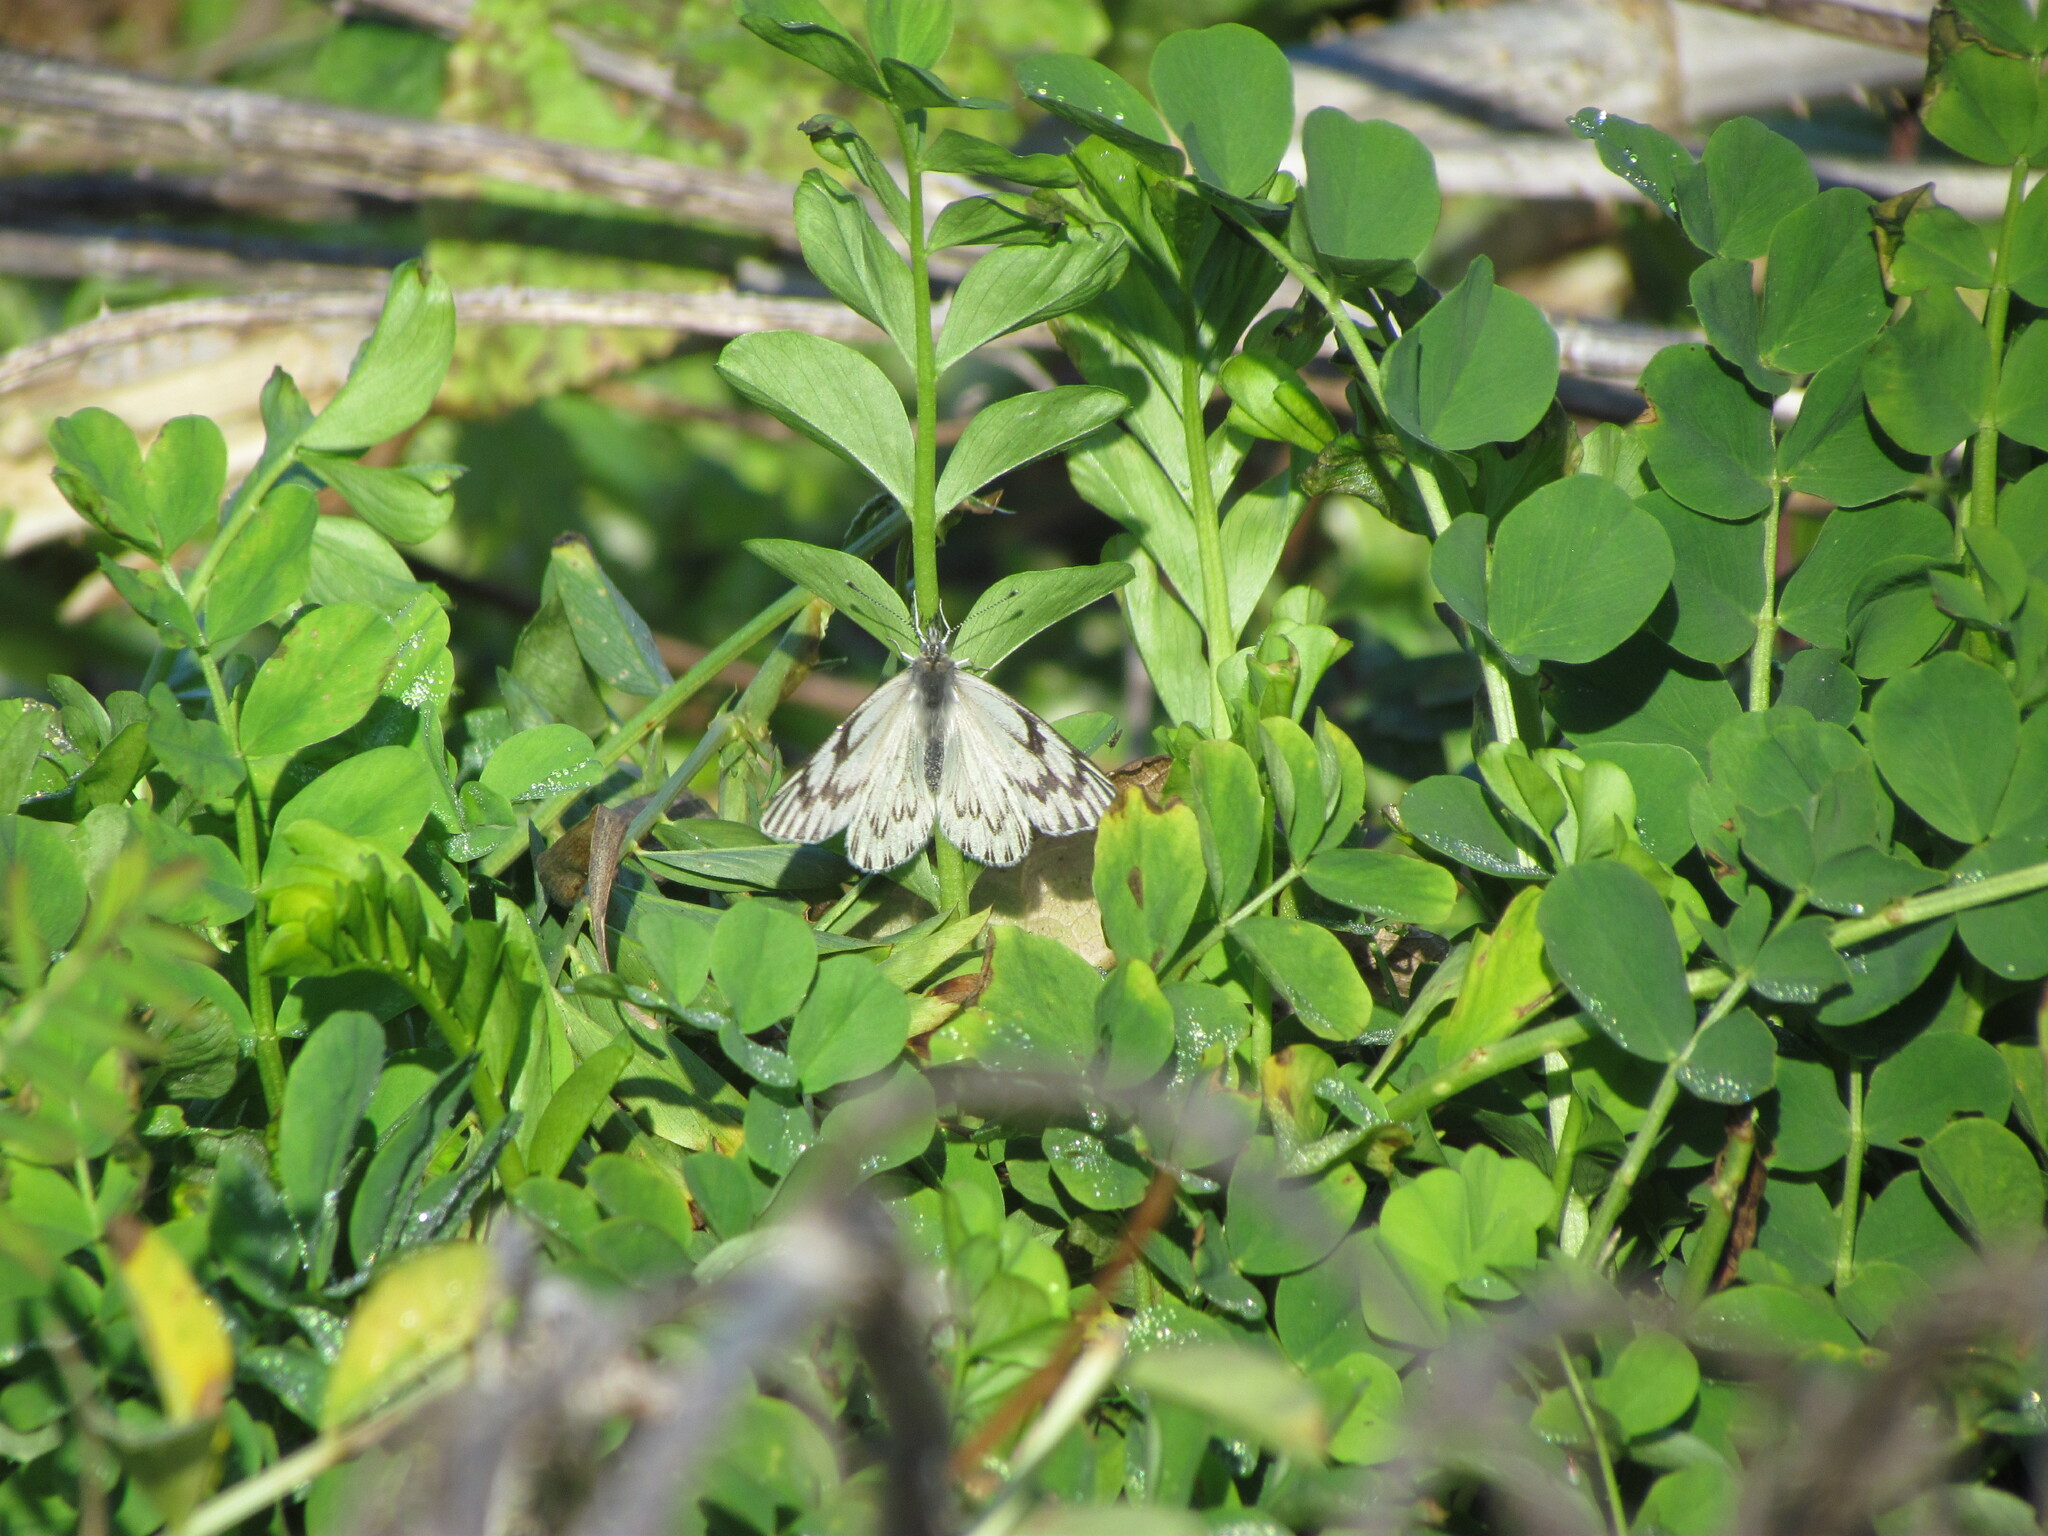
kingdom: Animalia
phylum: Arthropoda
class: Insecta
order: Lepidoptera
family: Pieridae
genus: Tatochila
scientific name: Tatochila mercedis
